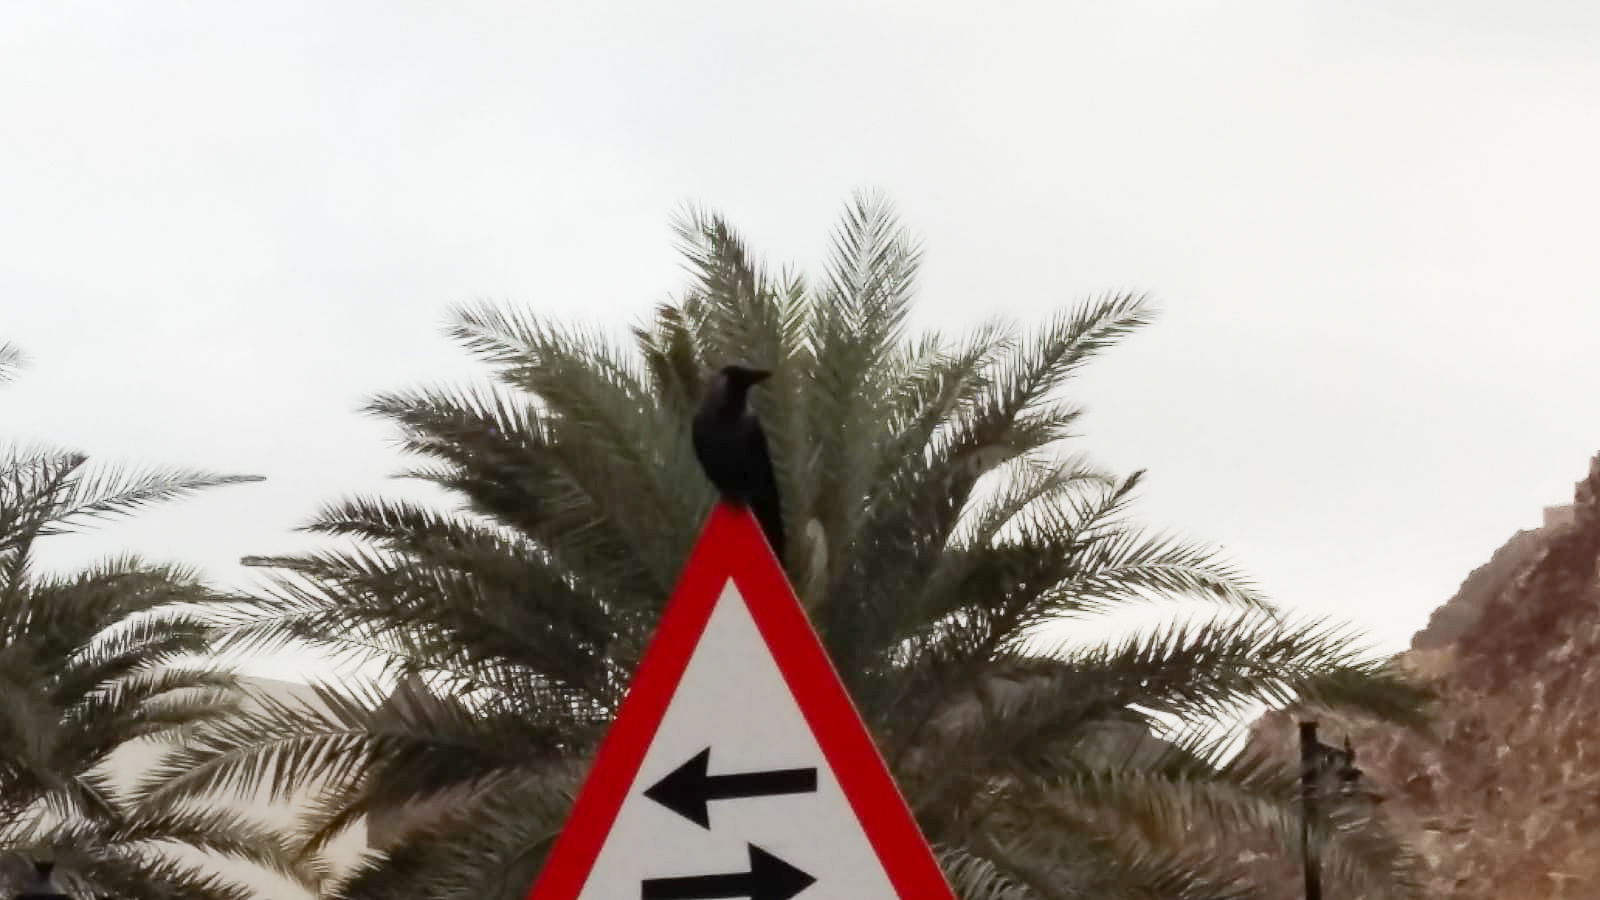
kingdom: Animalia
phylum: Chordata
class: Aves
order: Passeriformes
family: Corvidae
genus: Corvus
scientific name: Corvus splendens
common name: House crow
